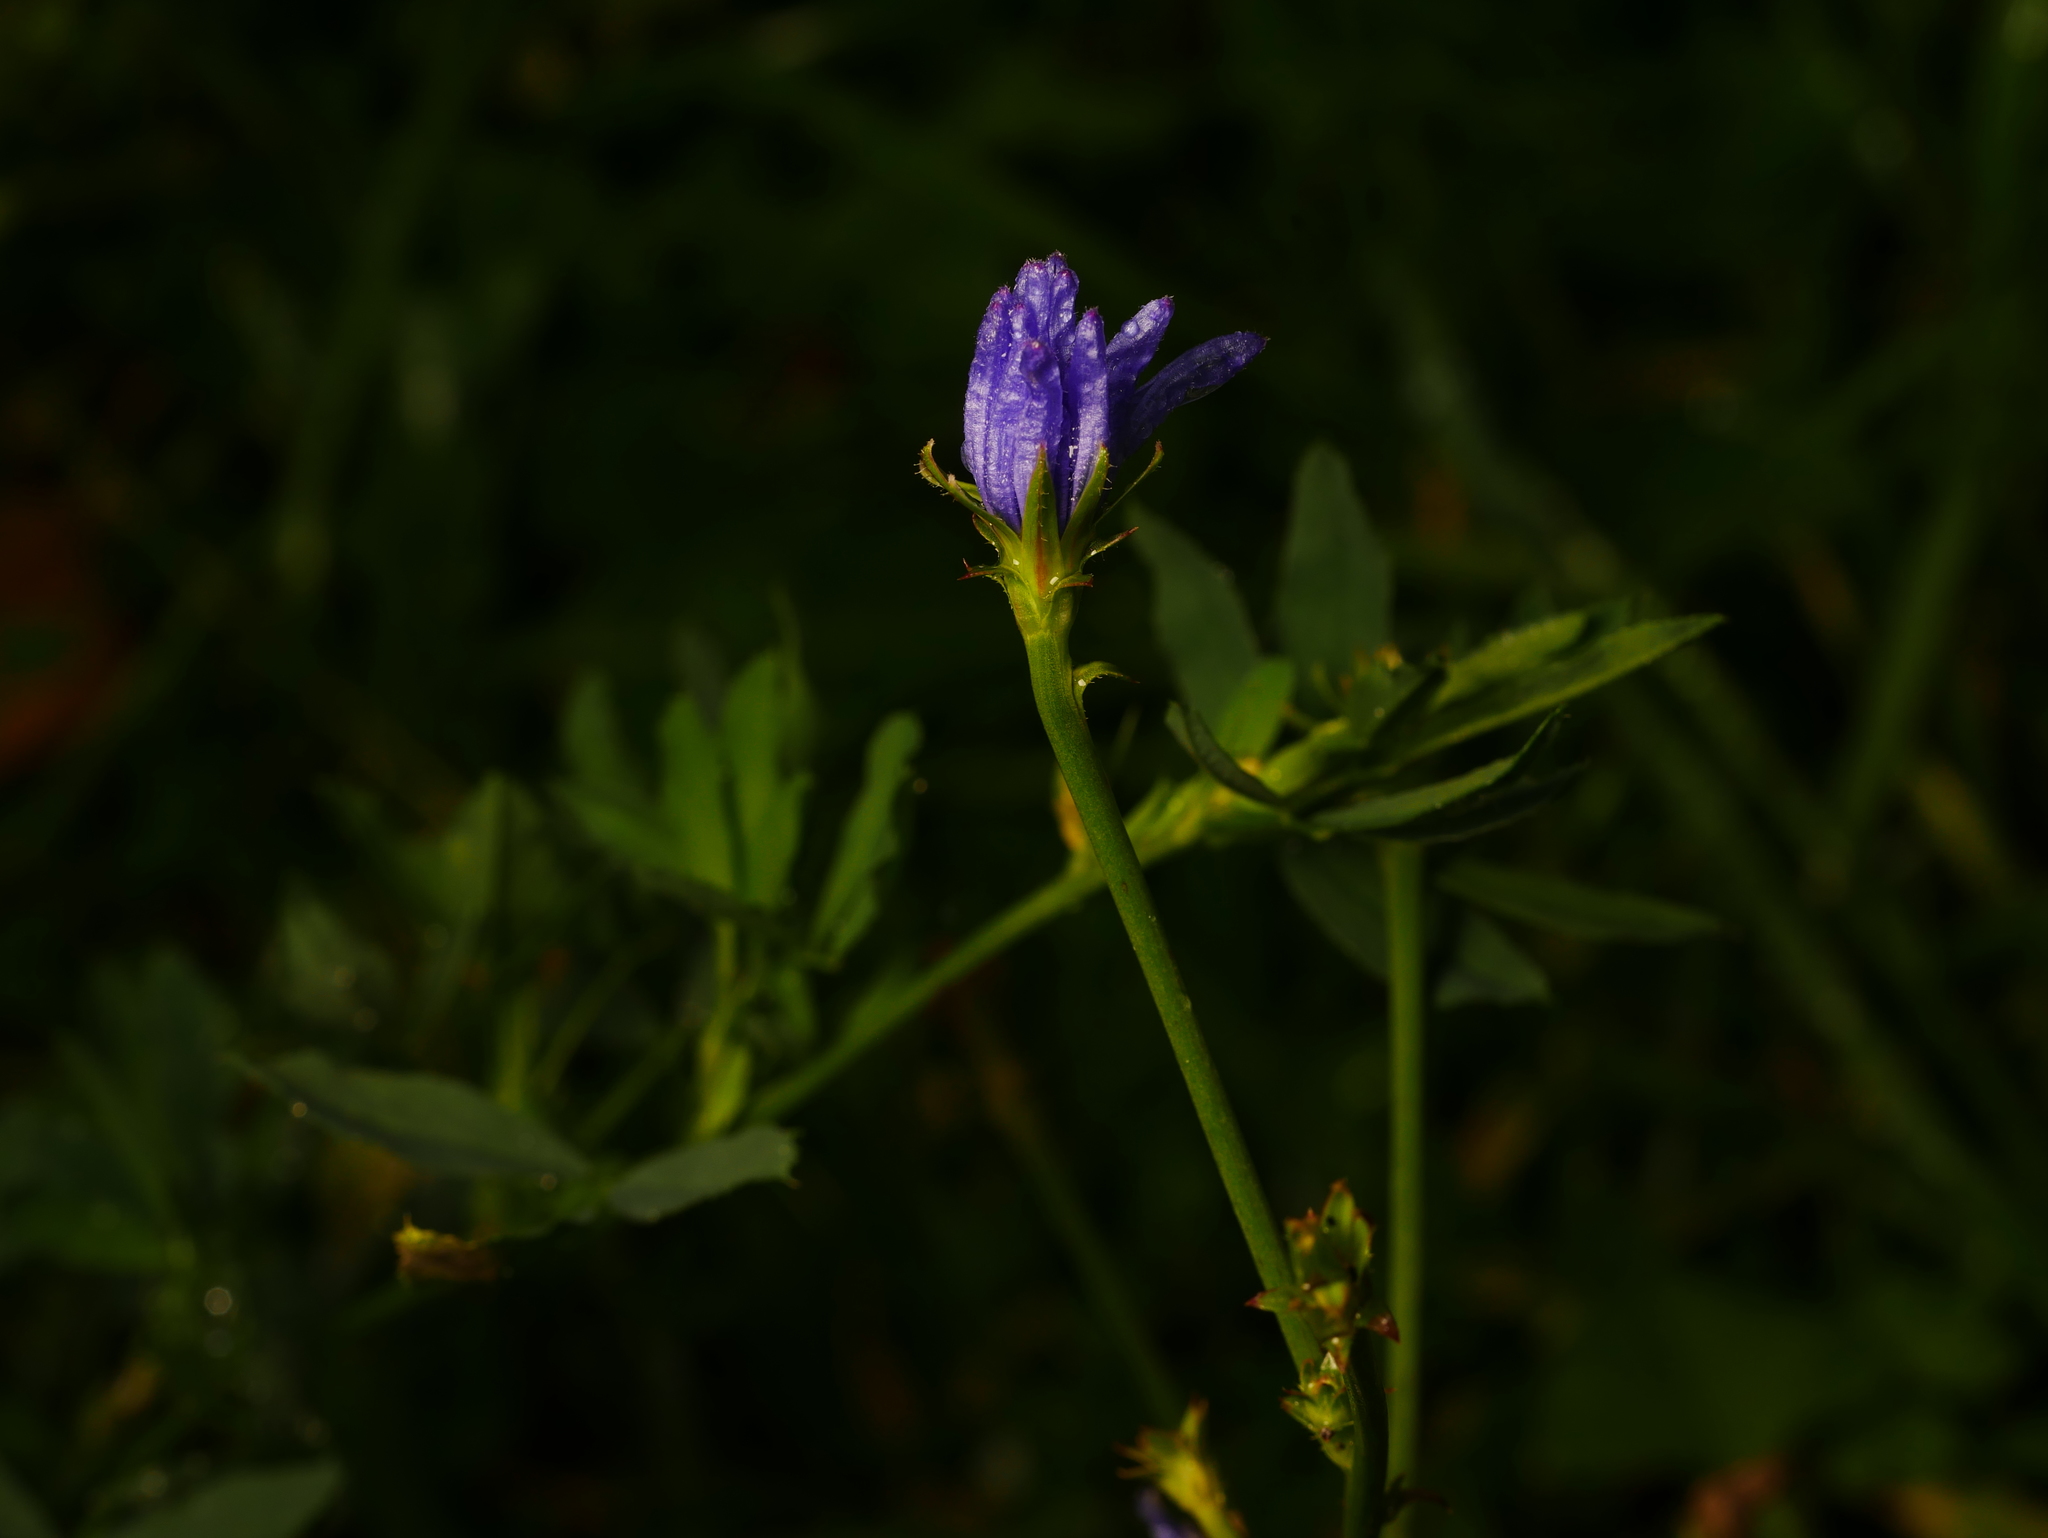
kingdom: Plantae
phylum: Tracheophyta
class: Magnoliopsida
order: Asterales
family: Asteraceae
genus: Cichorium
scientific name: Cichorium intybus
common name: Chicory
